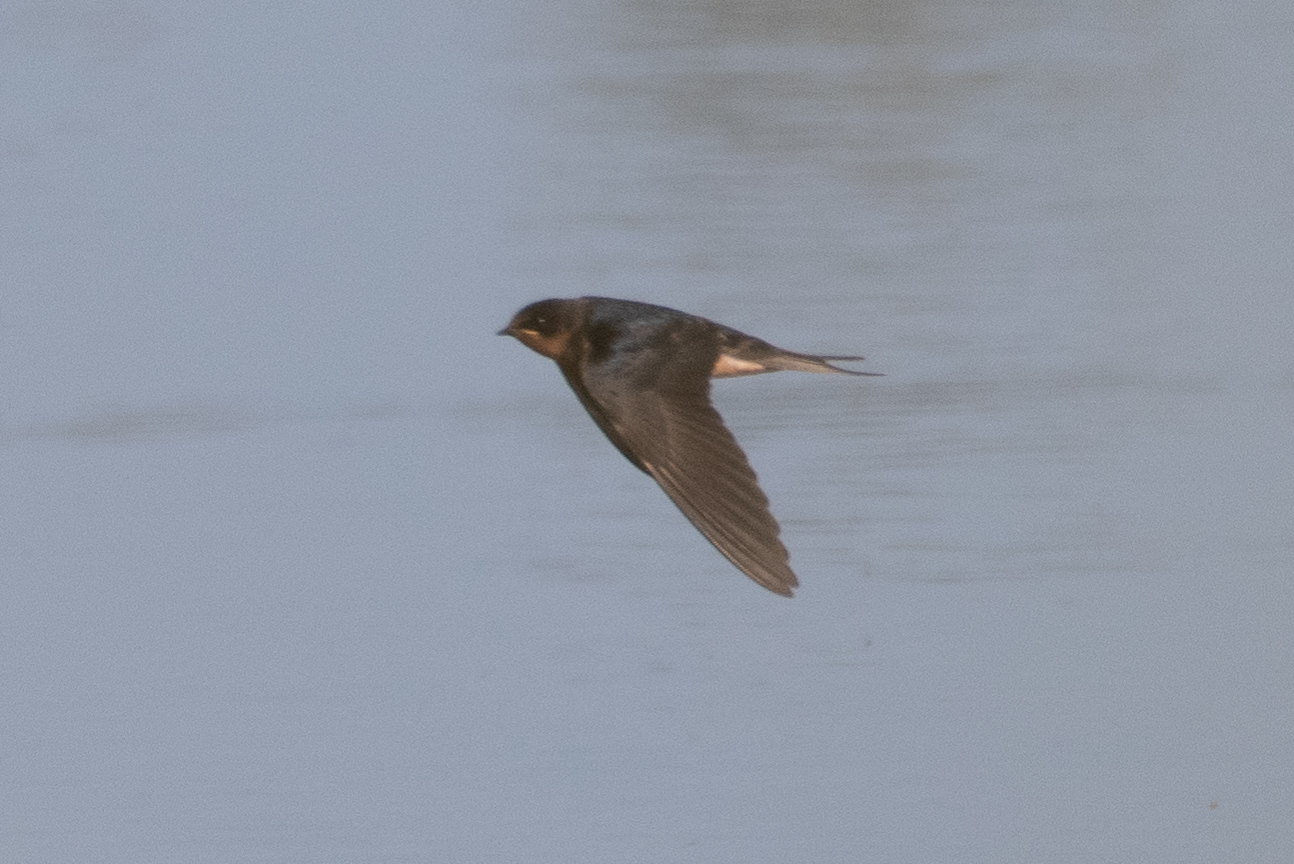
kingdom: Animalia
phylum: Chordata
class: Aves
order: Passeriformes
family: Hirundinidae
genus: Hirundo
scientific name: Hirundo rustica
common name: Barn swallow
